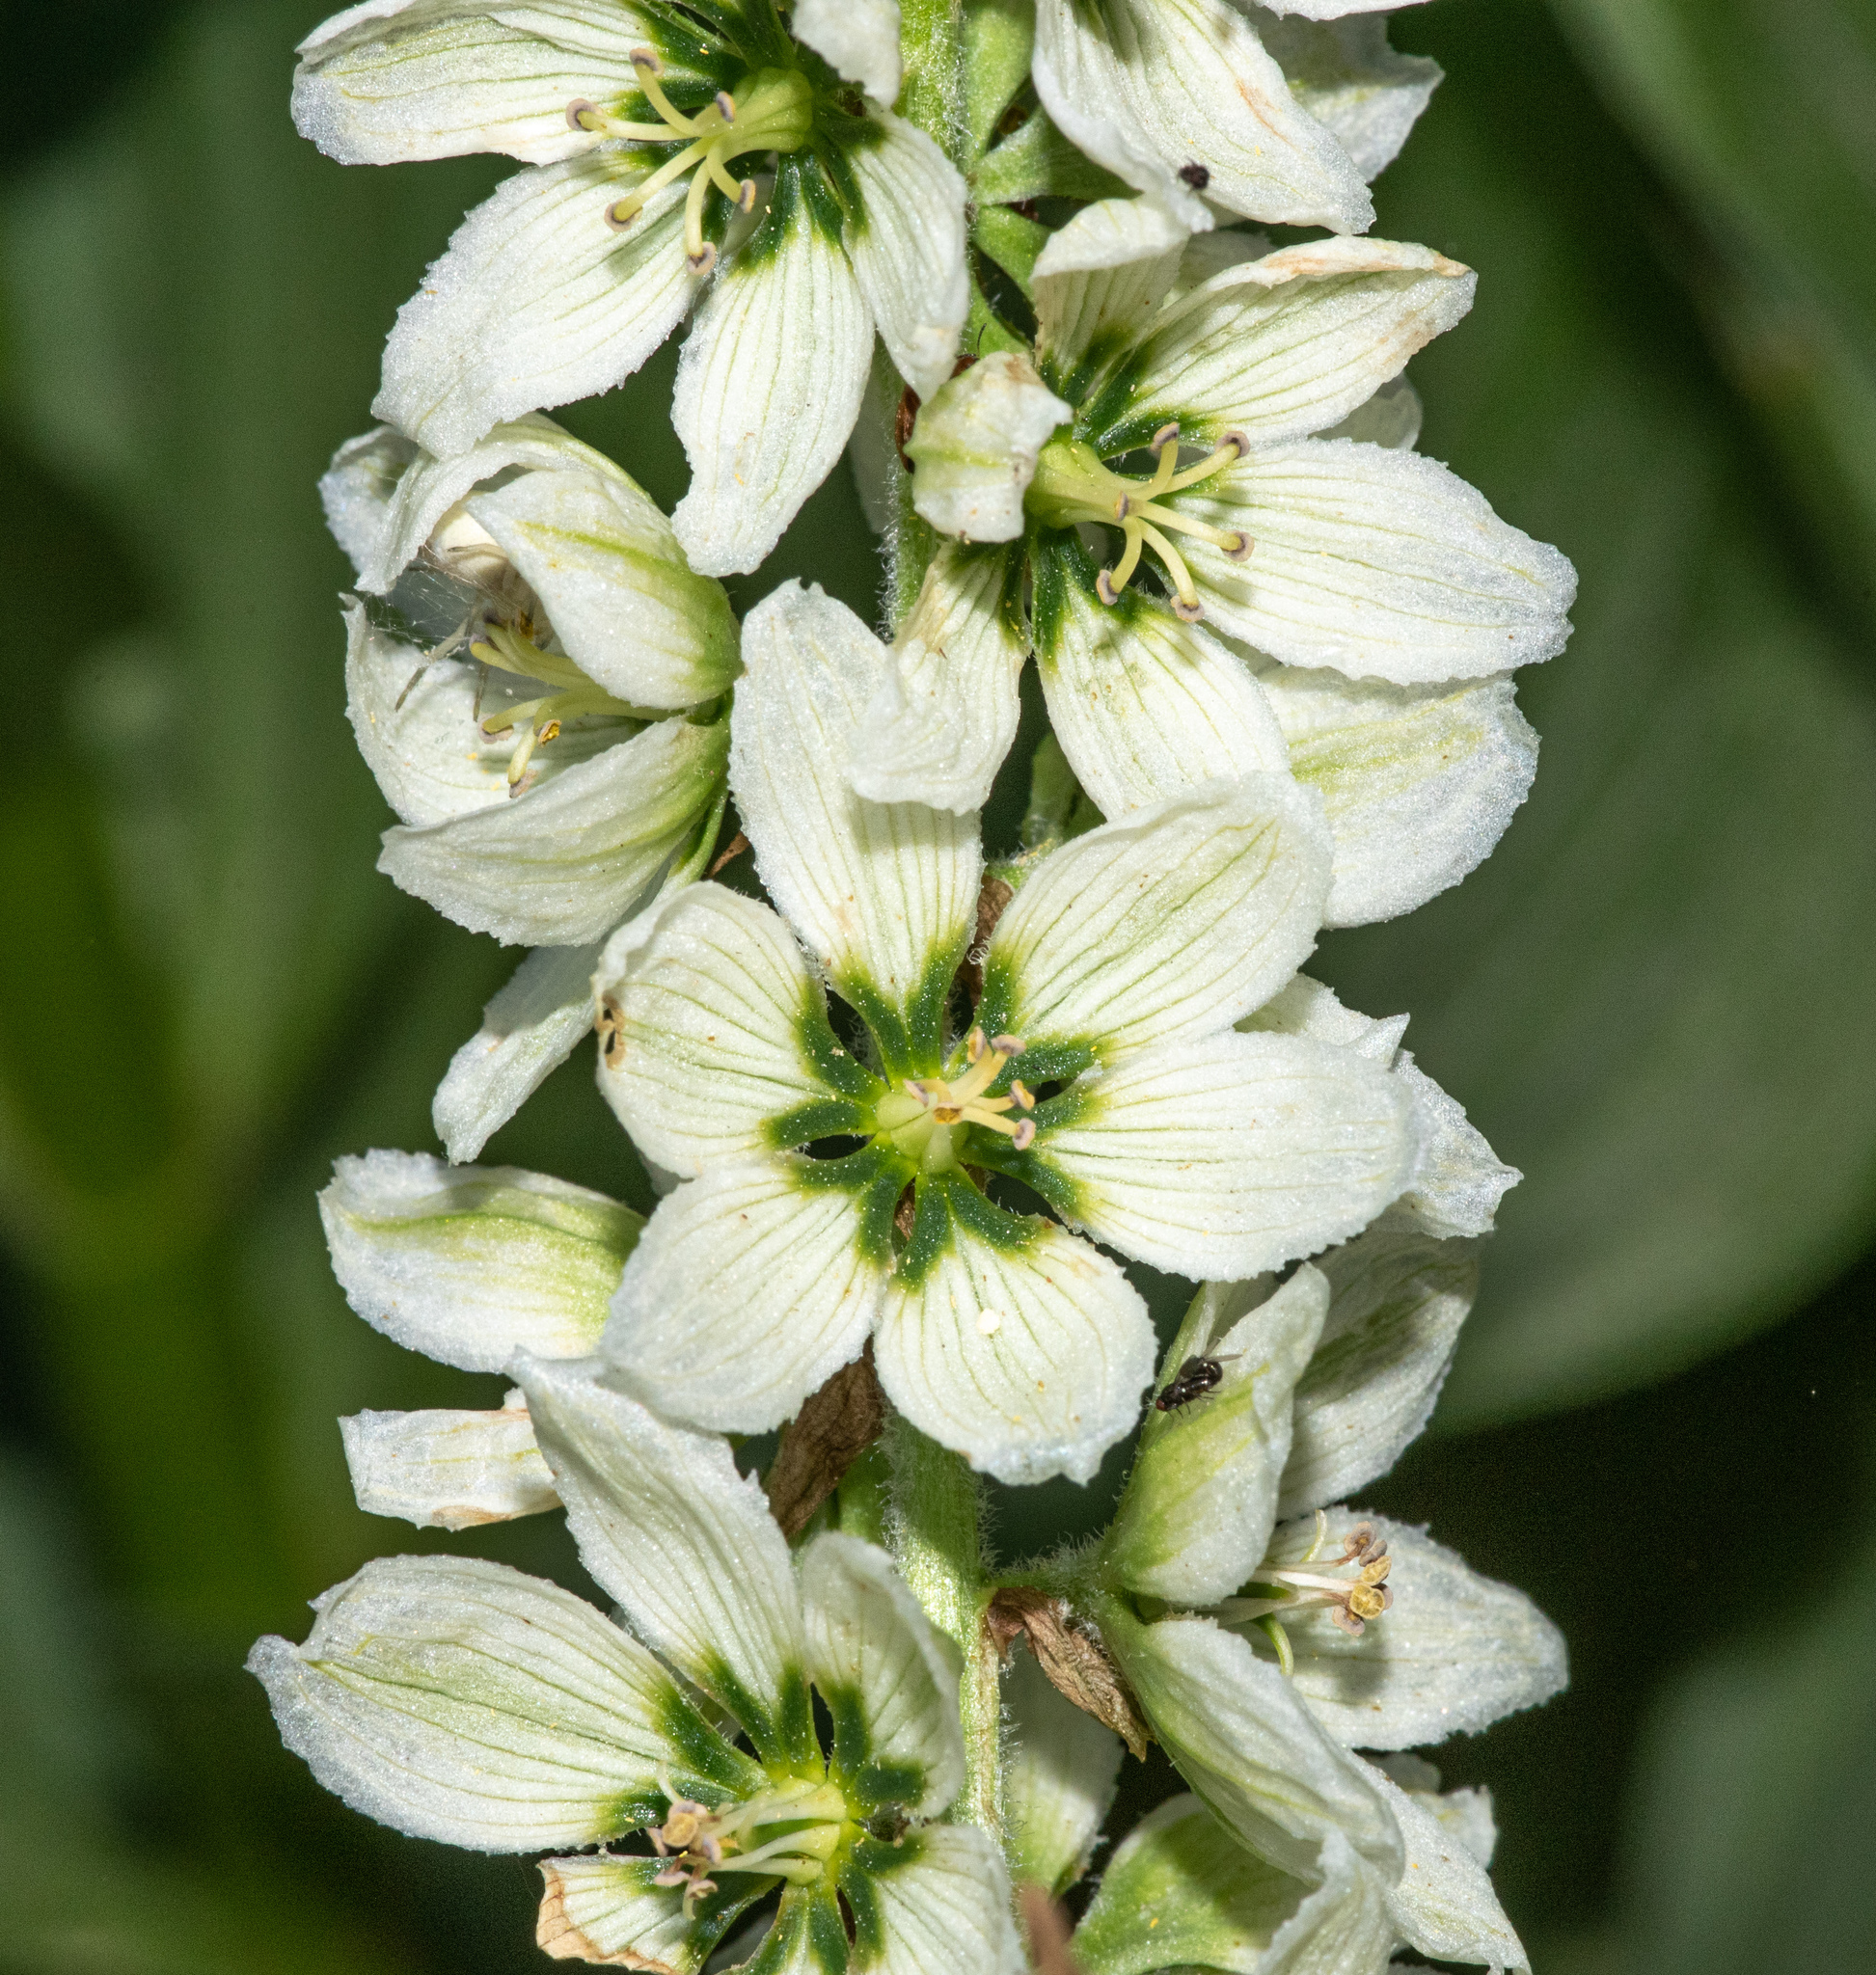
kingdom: Plantae
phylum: Tracheophyta
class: Liliopsida
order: Liliales
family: Melanthiaceae
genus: Veratrum
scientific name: Veratrum californicum
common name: California veratrum
